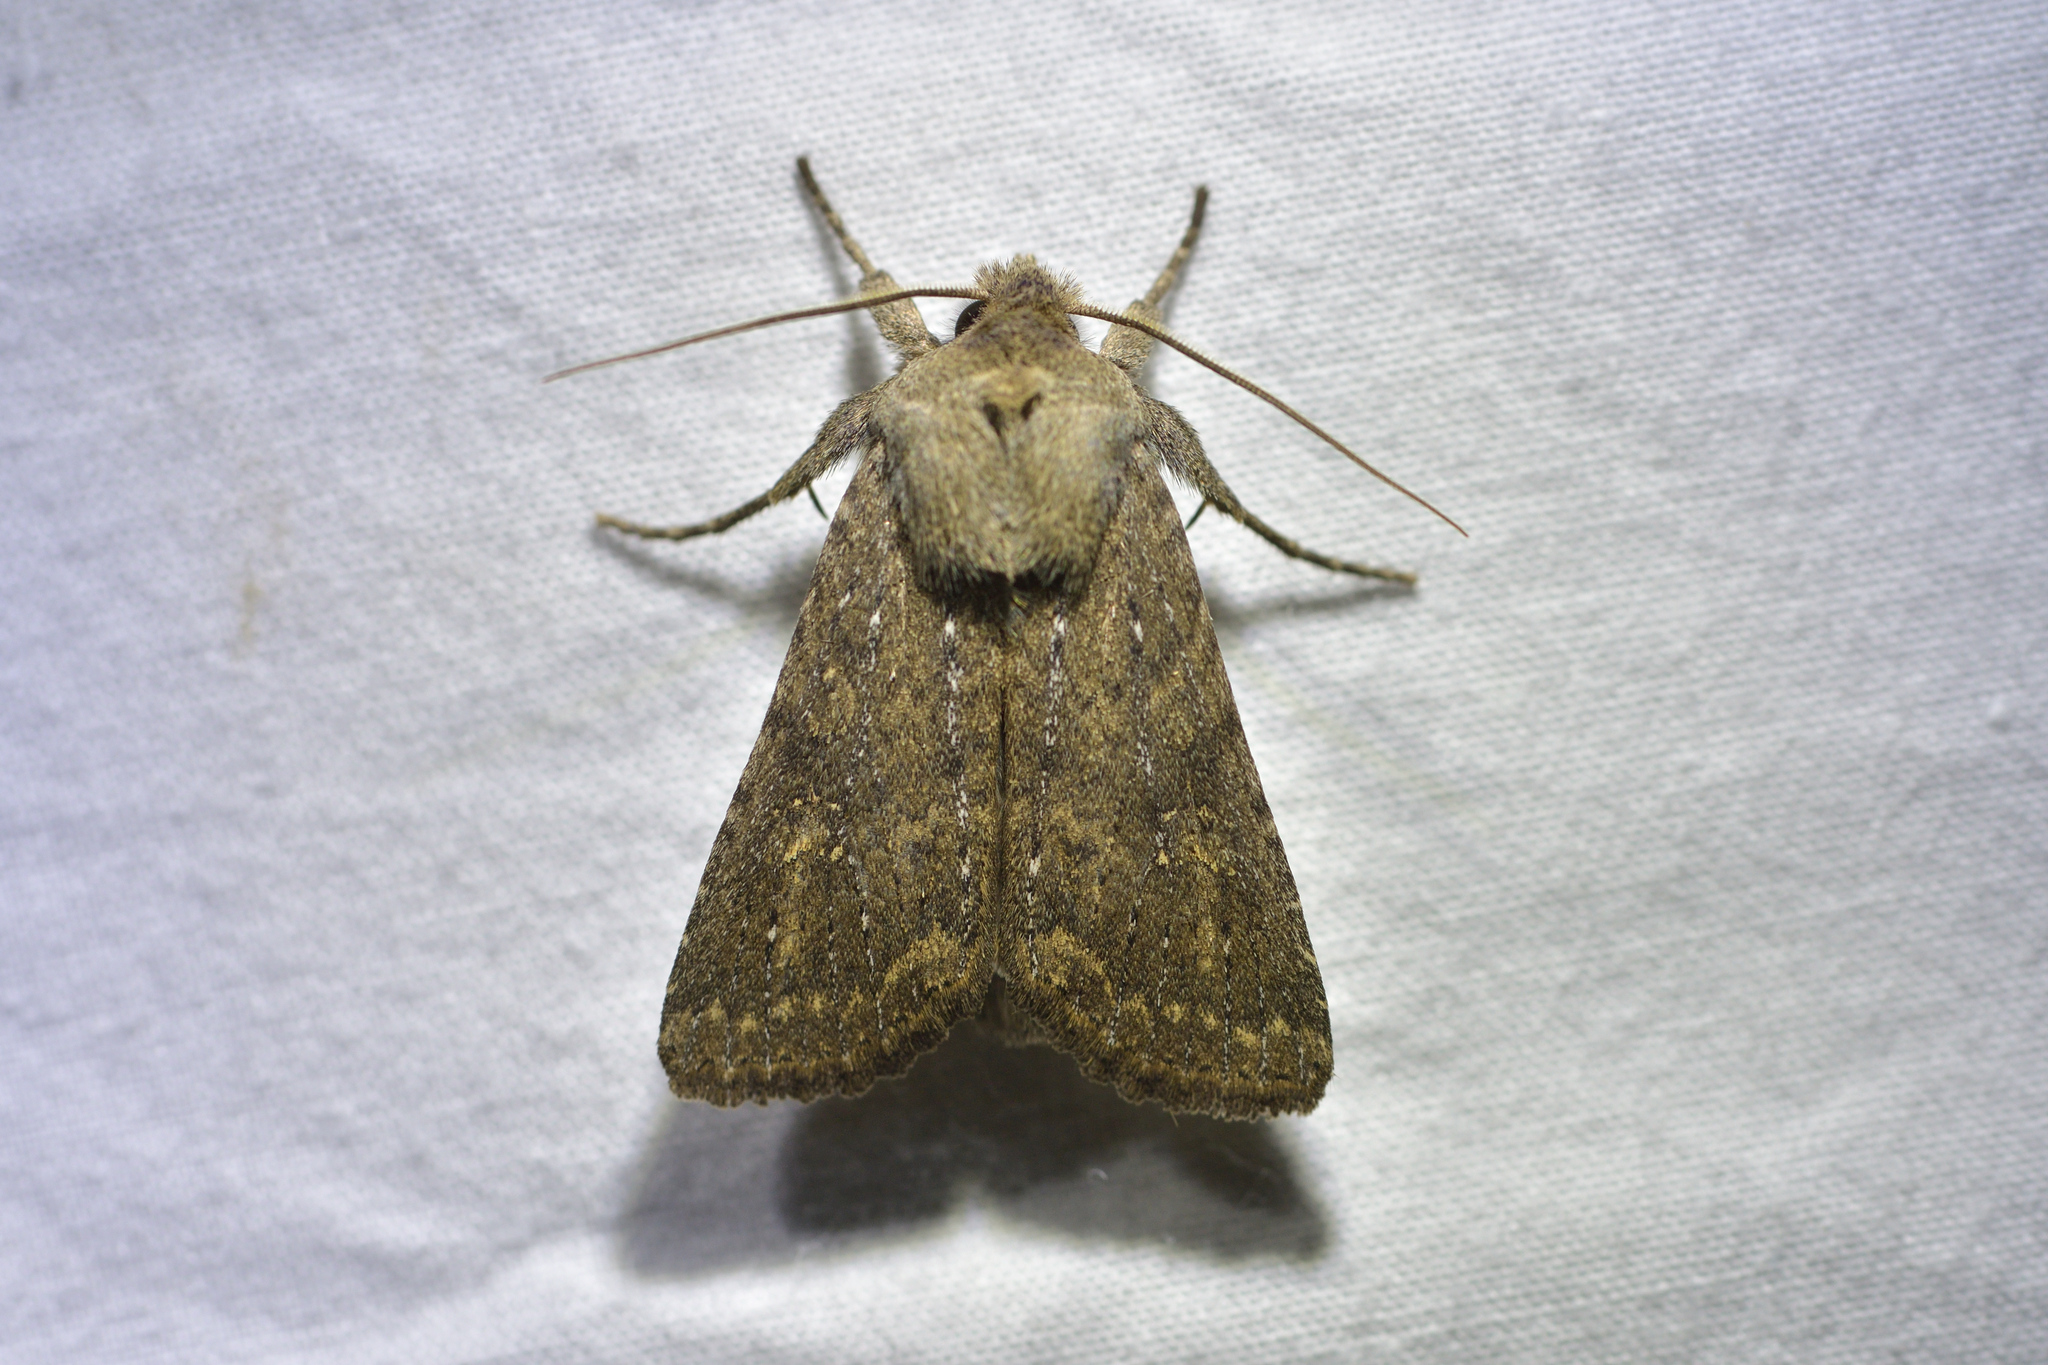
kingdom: Animalia
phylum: Arthropoda
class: Insecta
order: Lepidoptera
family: Noctuidae
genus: Physetica
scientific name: Physetica
